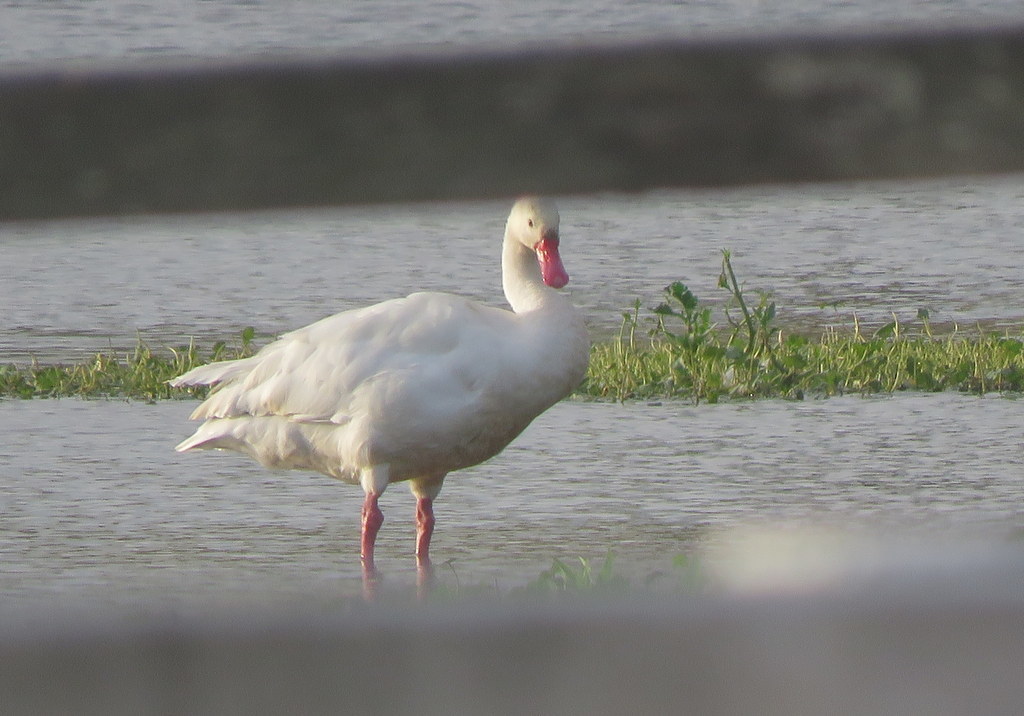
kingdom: Animalia
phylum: Chordata
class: Aves
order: Anseriformes
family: Anatidae
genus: Coscoroba
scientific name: Coscoroba coscoroba
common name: Coscoroba swan
